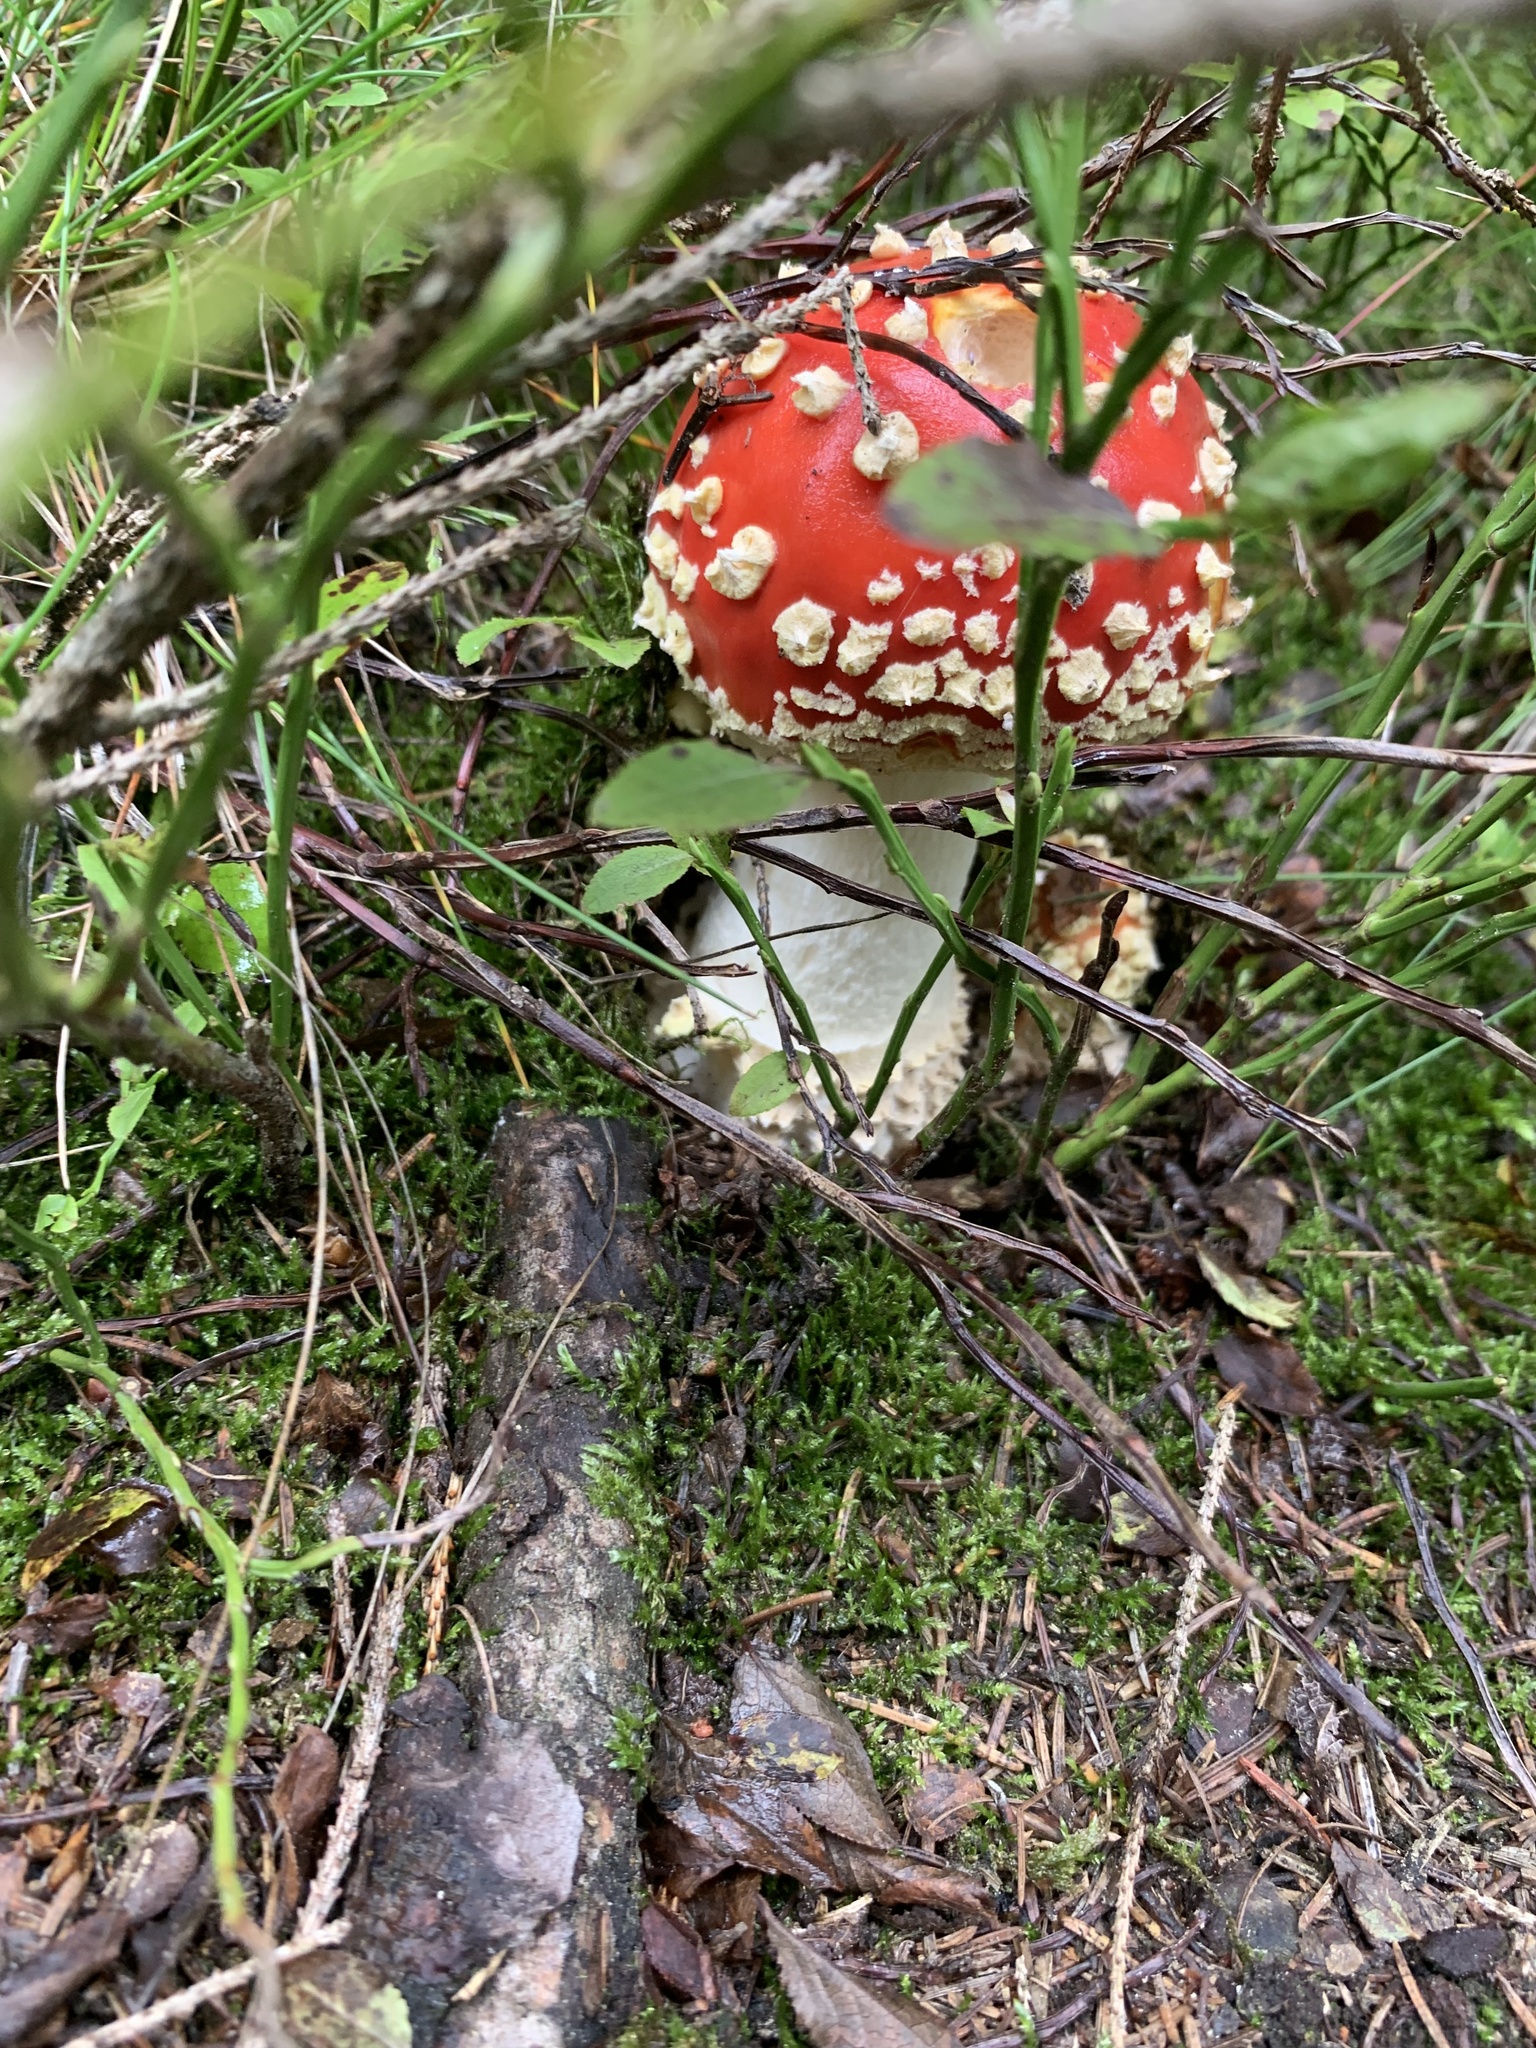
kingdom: Fungi
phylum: Basidiomycota
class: Agaricomycetes
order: Agaricales
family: Amanitaceae
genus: Amanita
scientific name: Amanita muscaria
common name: Fly agaric
